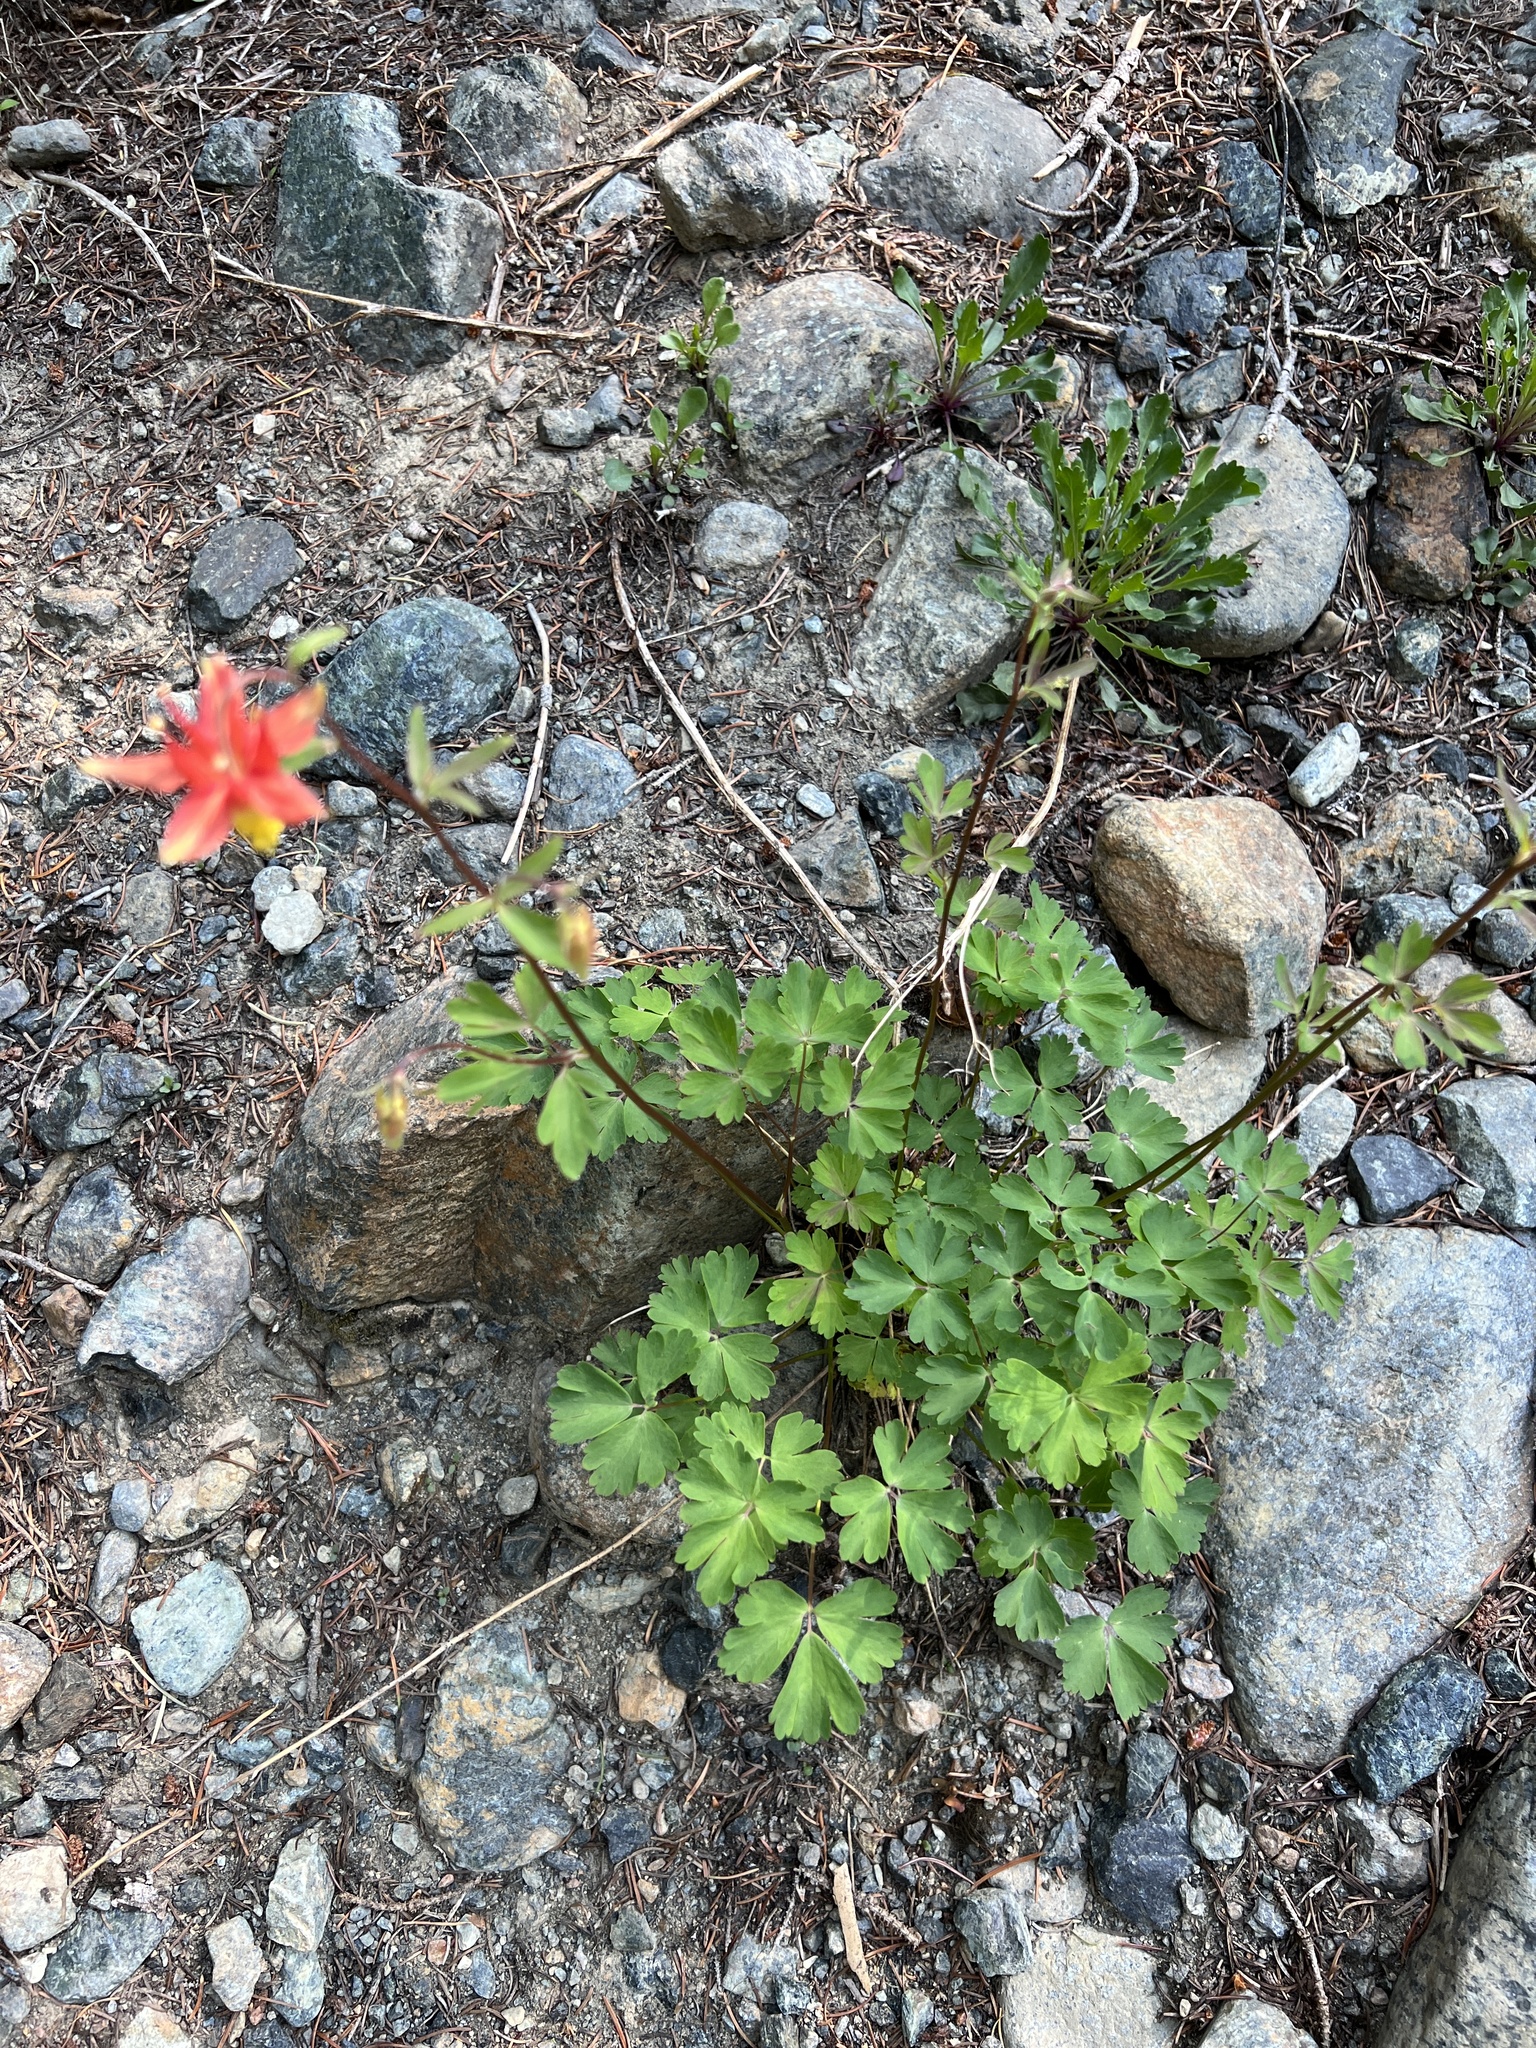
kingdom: Plantae
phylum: Tracheophyta
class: Magnoliopsida
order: Ranunculales
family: Ranunculaceae
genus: Aquilegia
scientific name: Aquilegia formosa
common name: Sitka columbine
